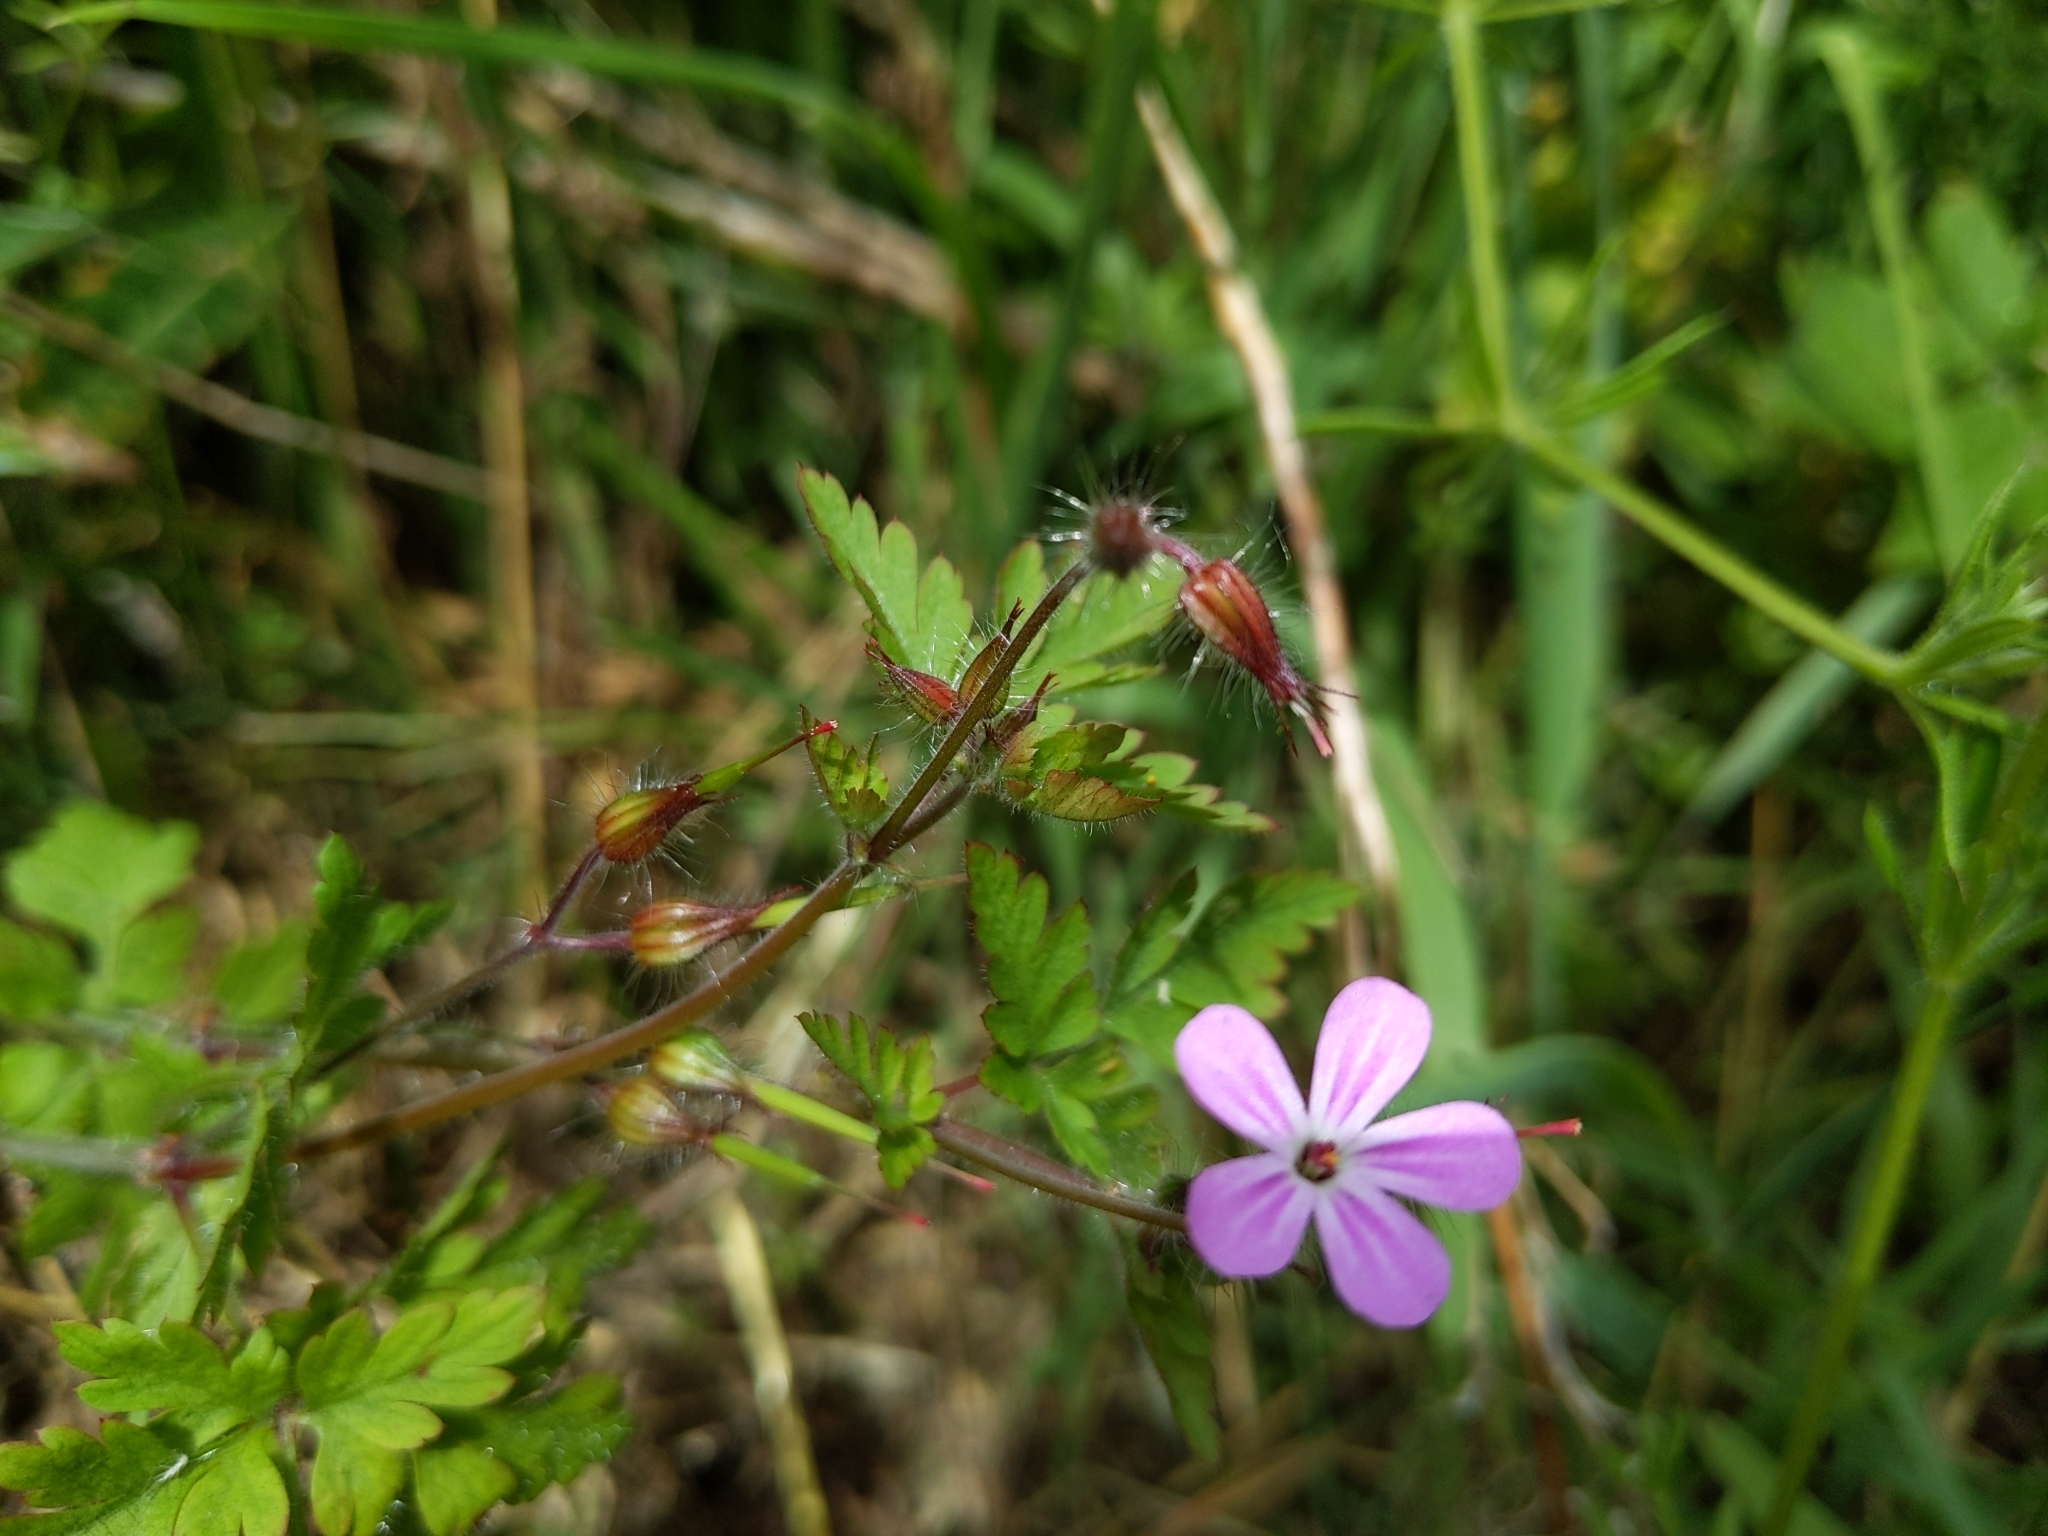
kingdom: Plantae
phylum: Tracheophyta
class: Magnoliopsida
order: Geraniales
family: Geraniaceae
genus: Geranium
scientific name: Geranium robertianum
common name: Herb-robert
